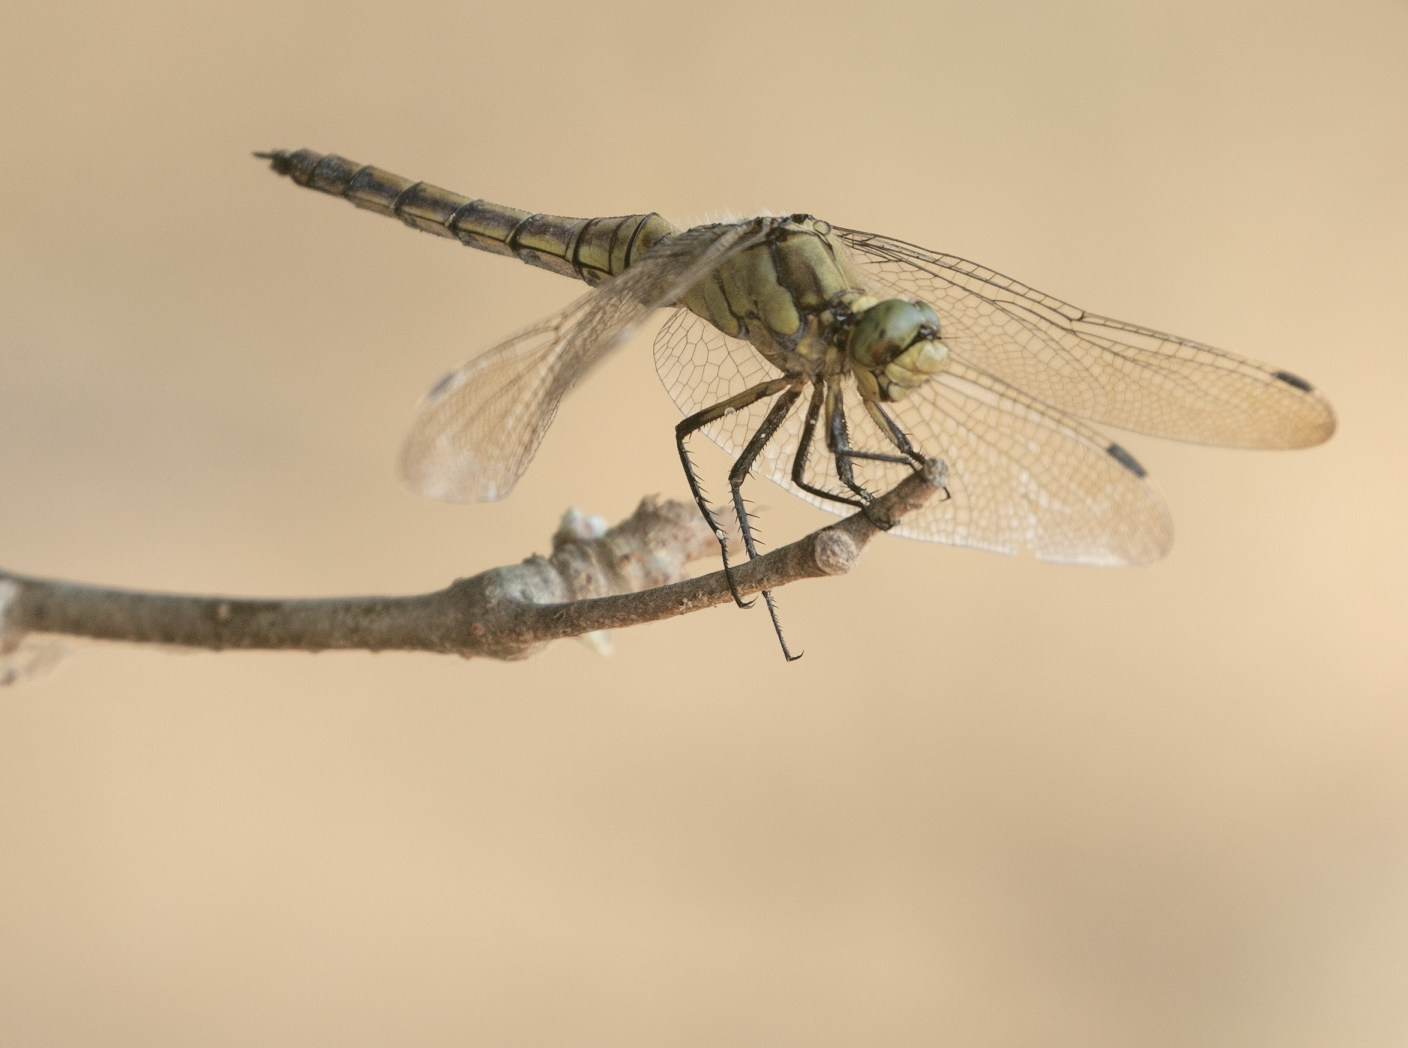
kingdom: Animalia
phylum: Arthropoda
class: Insecta
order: Odonata
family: Libellulidae
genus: Orthetrum
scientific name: Orthetrum cancellatum
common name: Black-tailed skimmer
